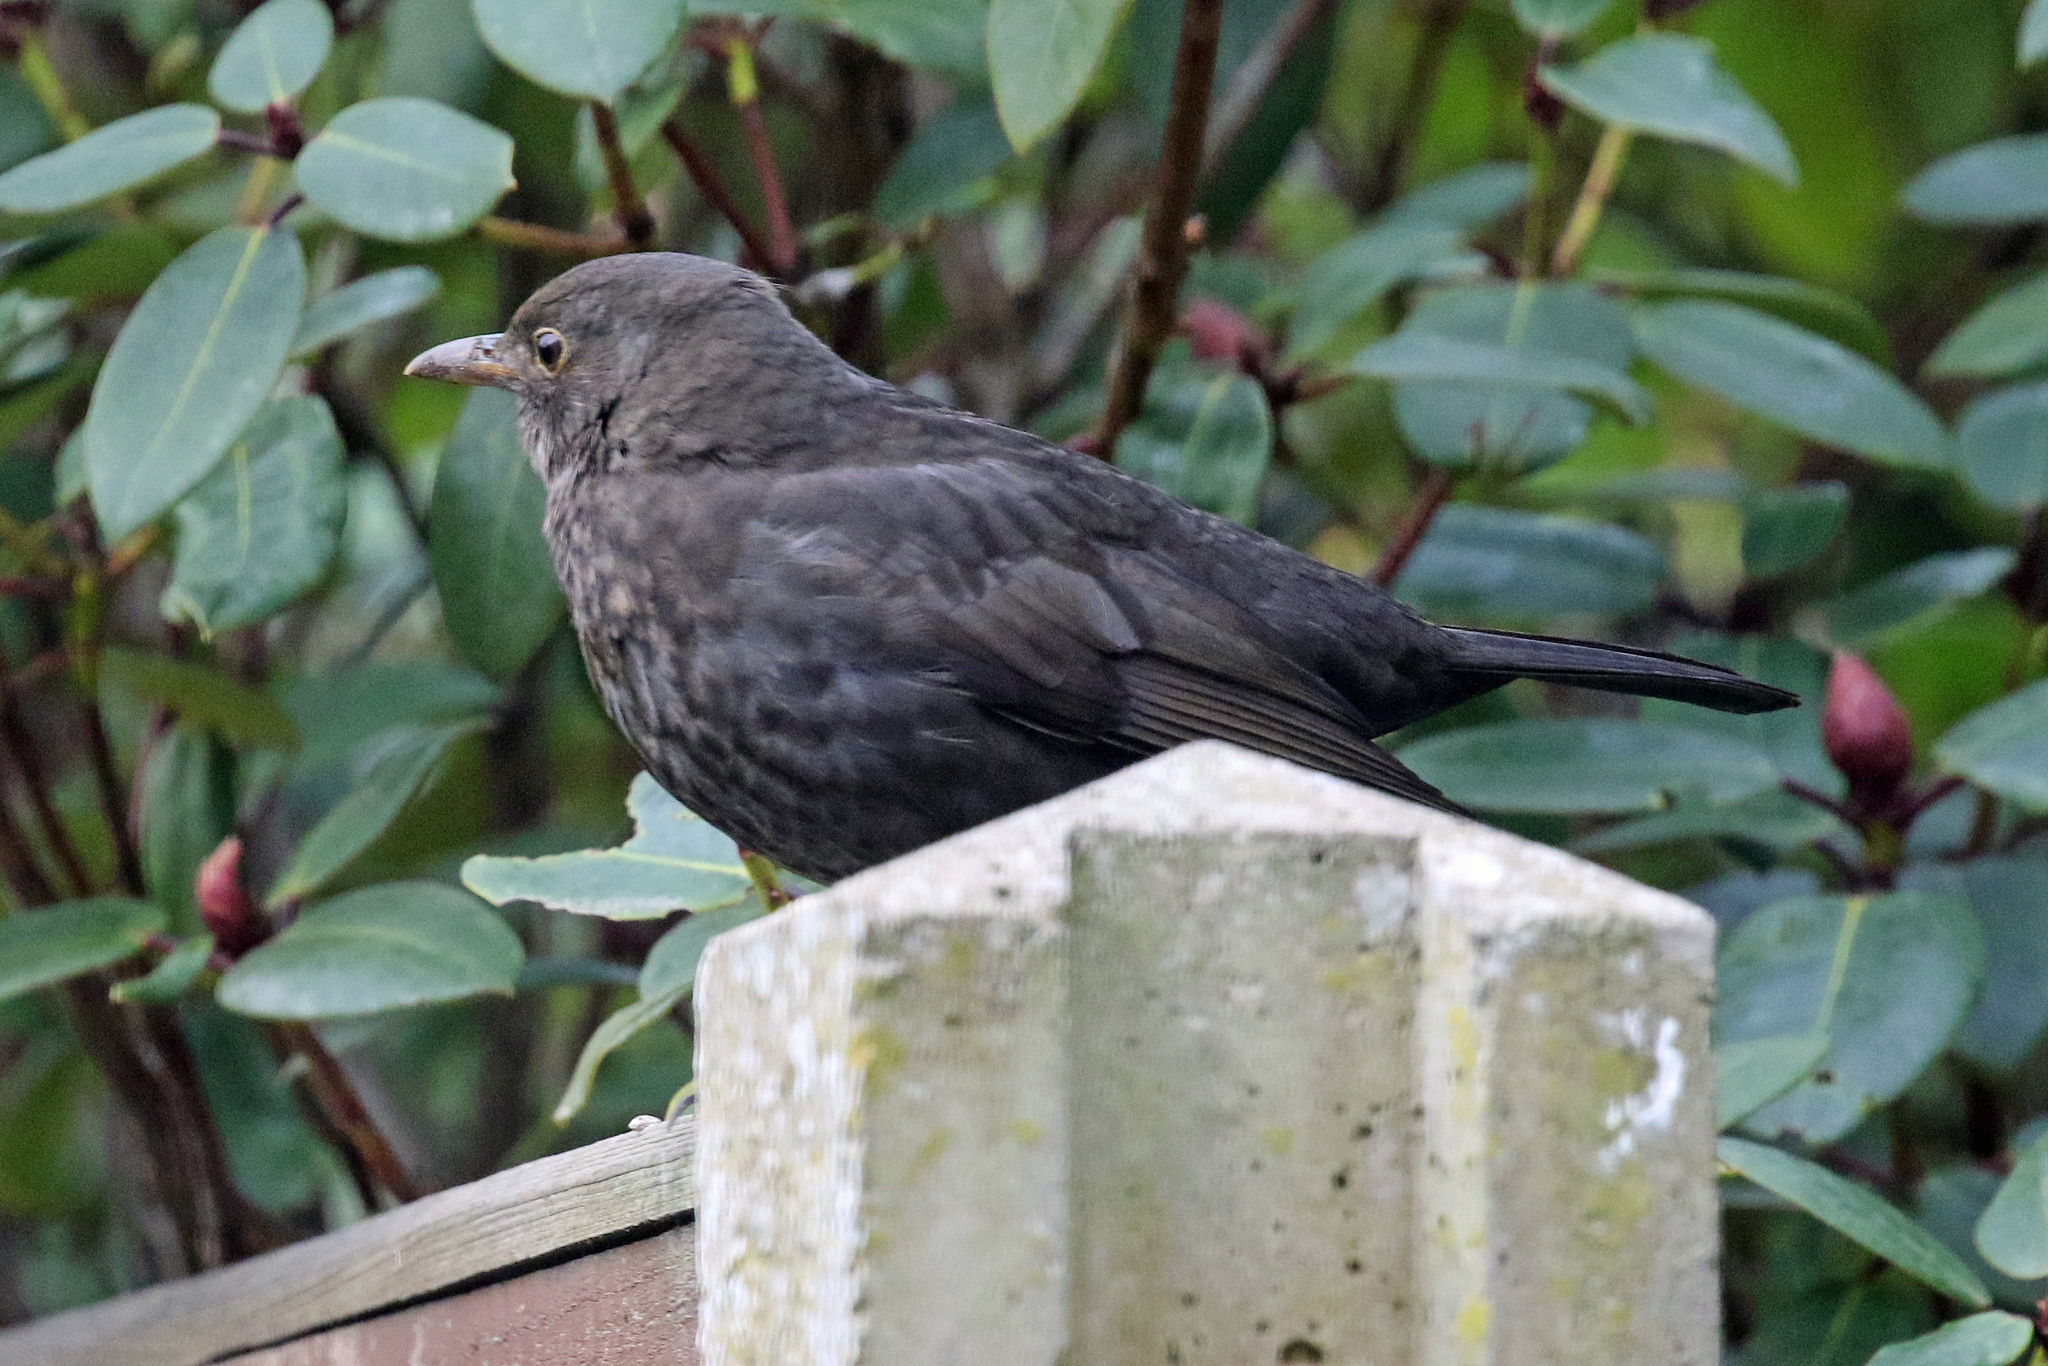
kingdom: Animalia
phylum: Chordata
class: Aves
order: Passeriformes
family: Turdidae
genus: Turdus
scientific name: Turdus merula
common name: Common blackbird
